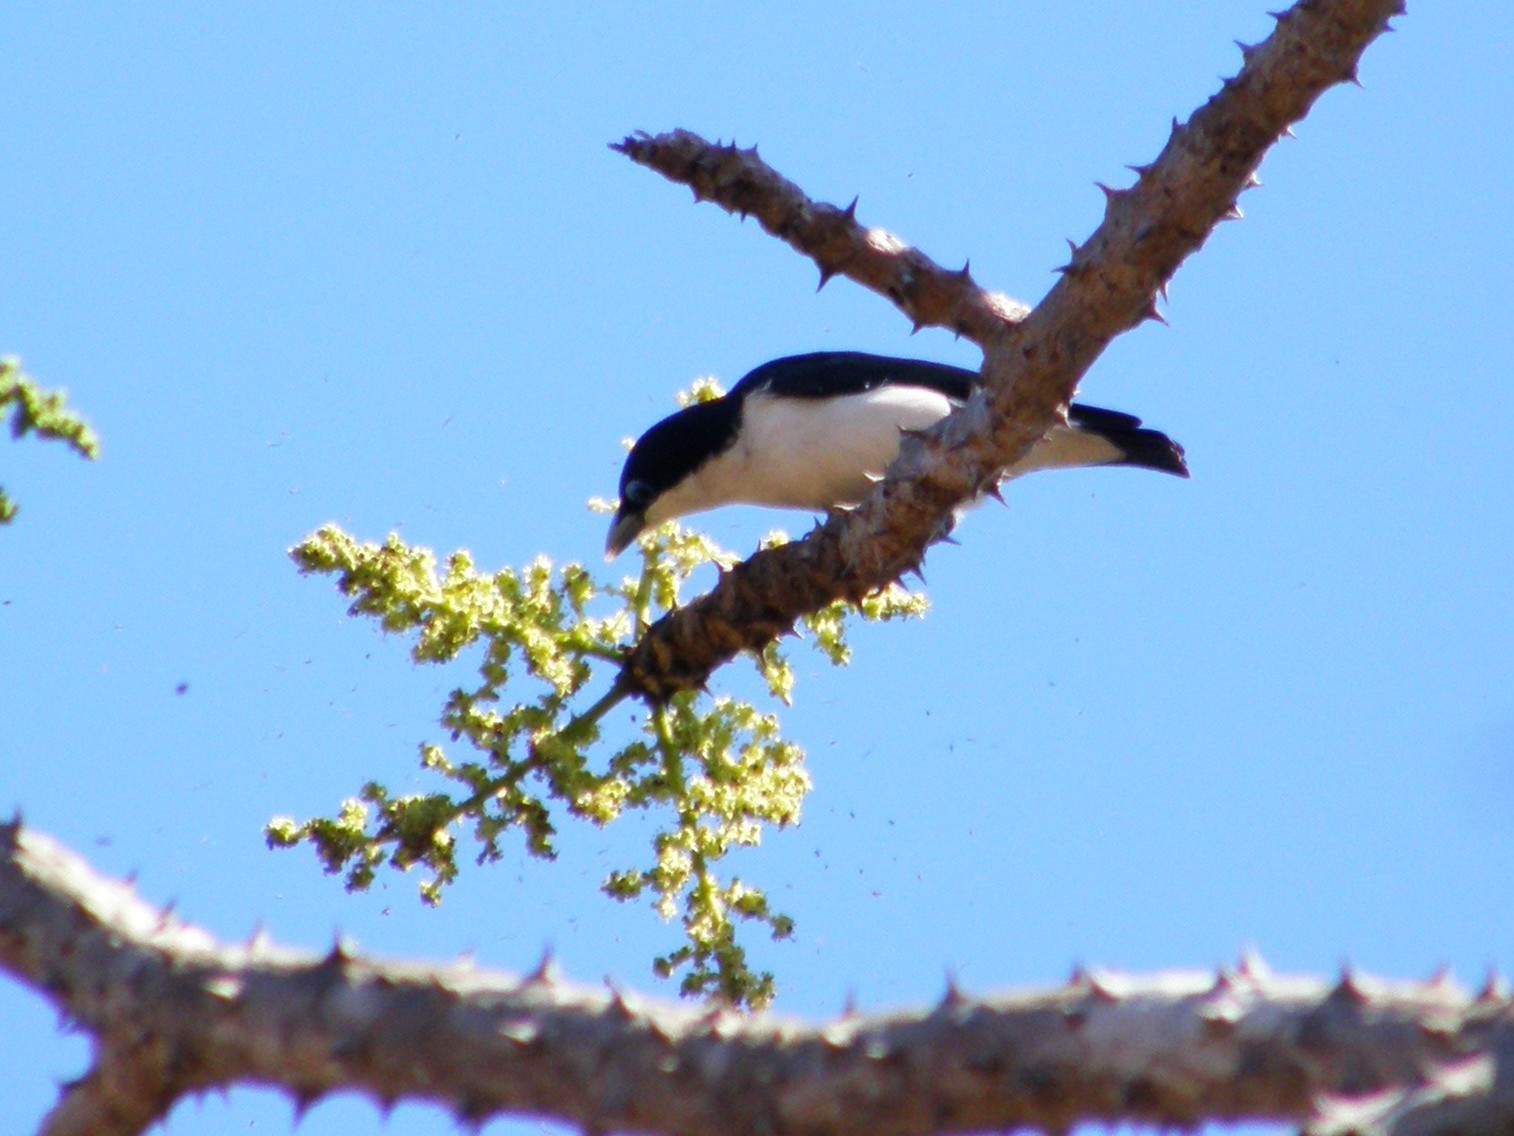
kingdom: Animalia
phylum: Chordata
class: Aves
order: Passeriformes
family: Vangidae
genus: Leptopterus
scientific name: Leptopterus chabert
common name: Chabert vanga
